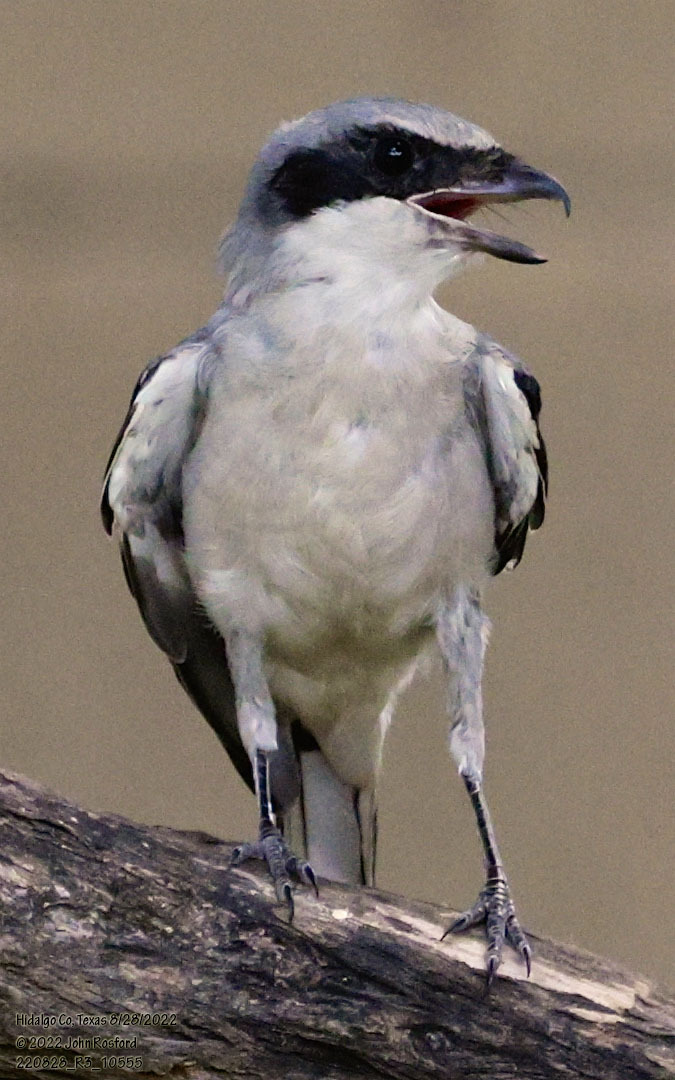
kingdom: Animalia
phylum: Chordata
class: Aves
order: Passeriformes
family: Laniidae
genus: Lanius
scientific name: Lanius ludovicianus
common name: Loggerhead shrike
